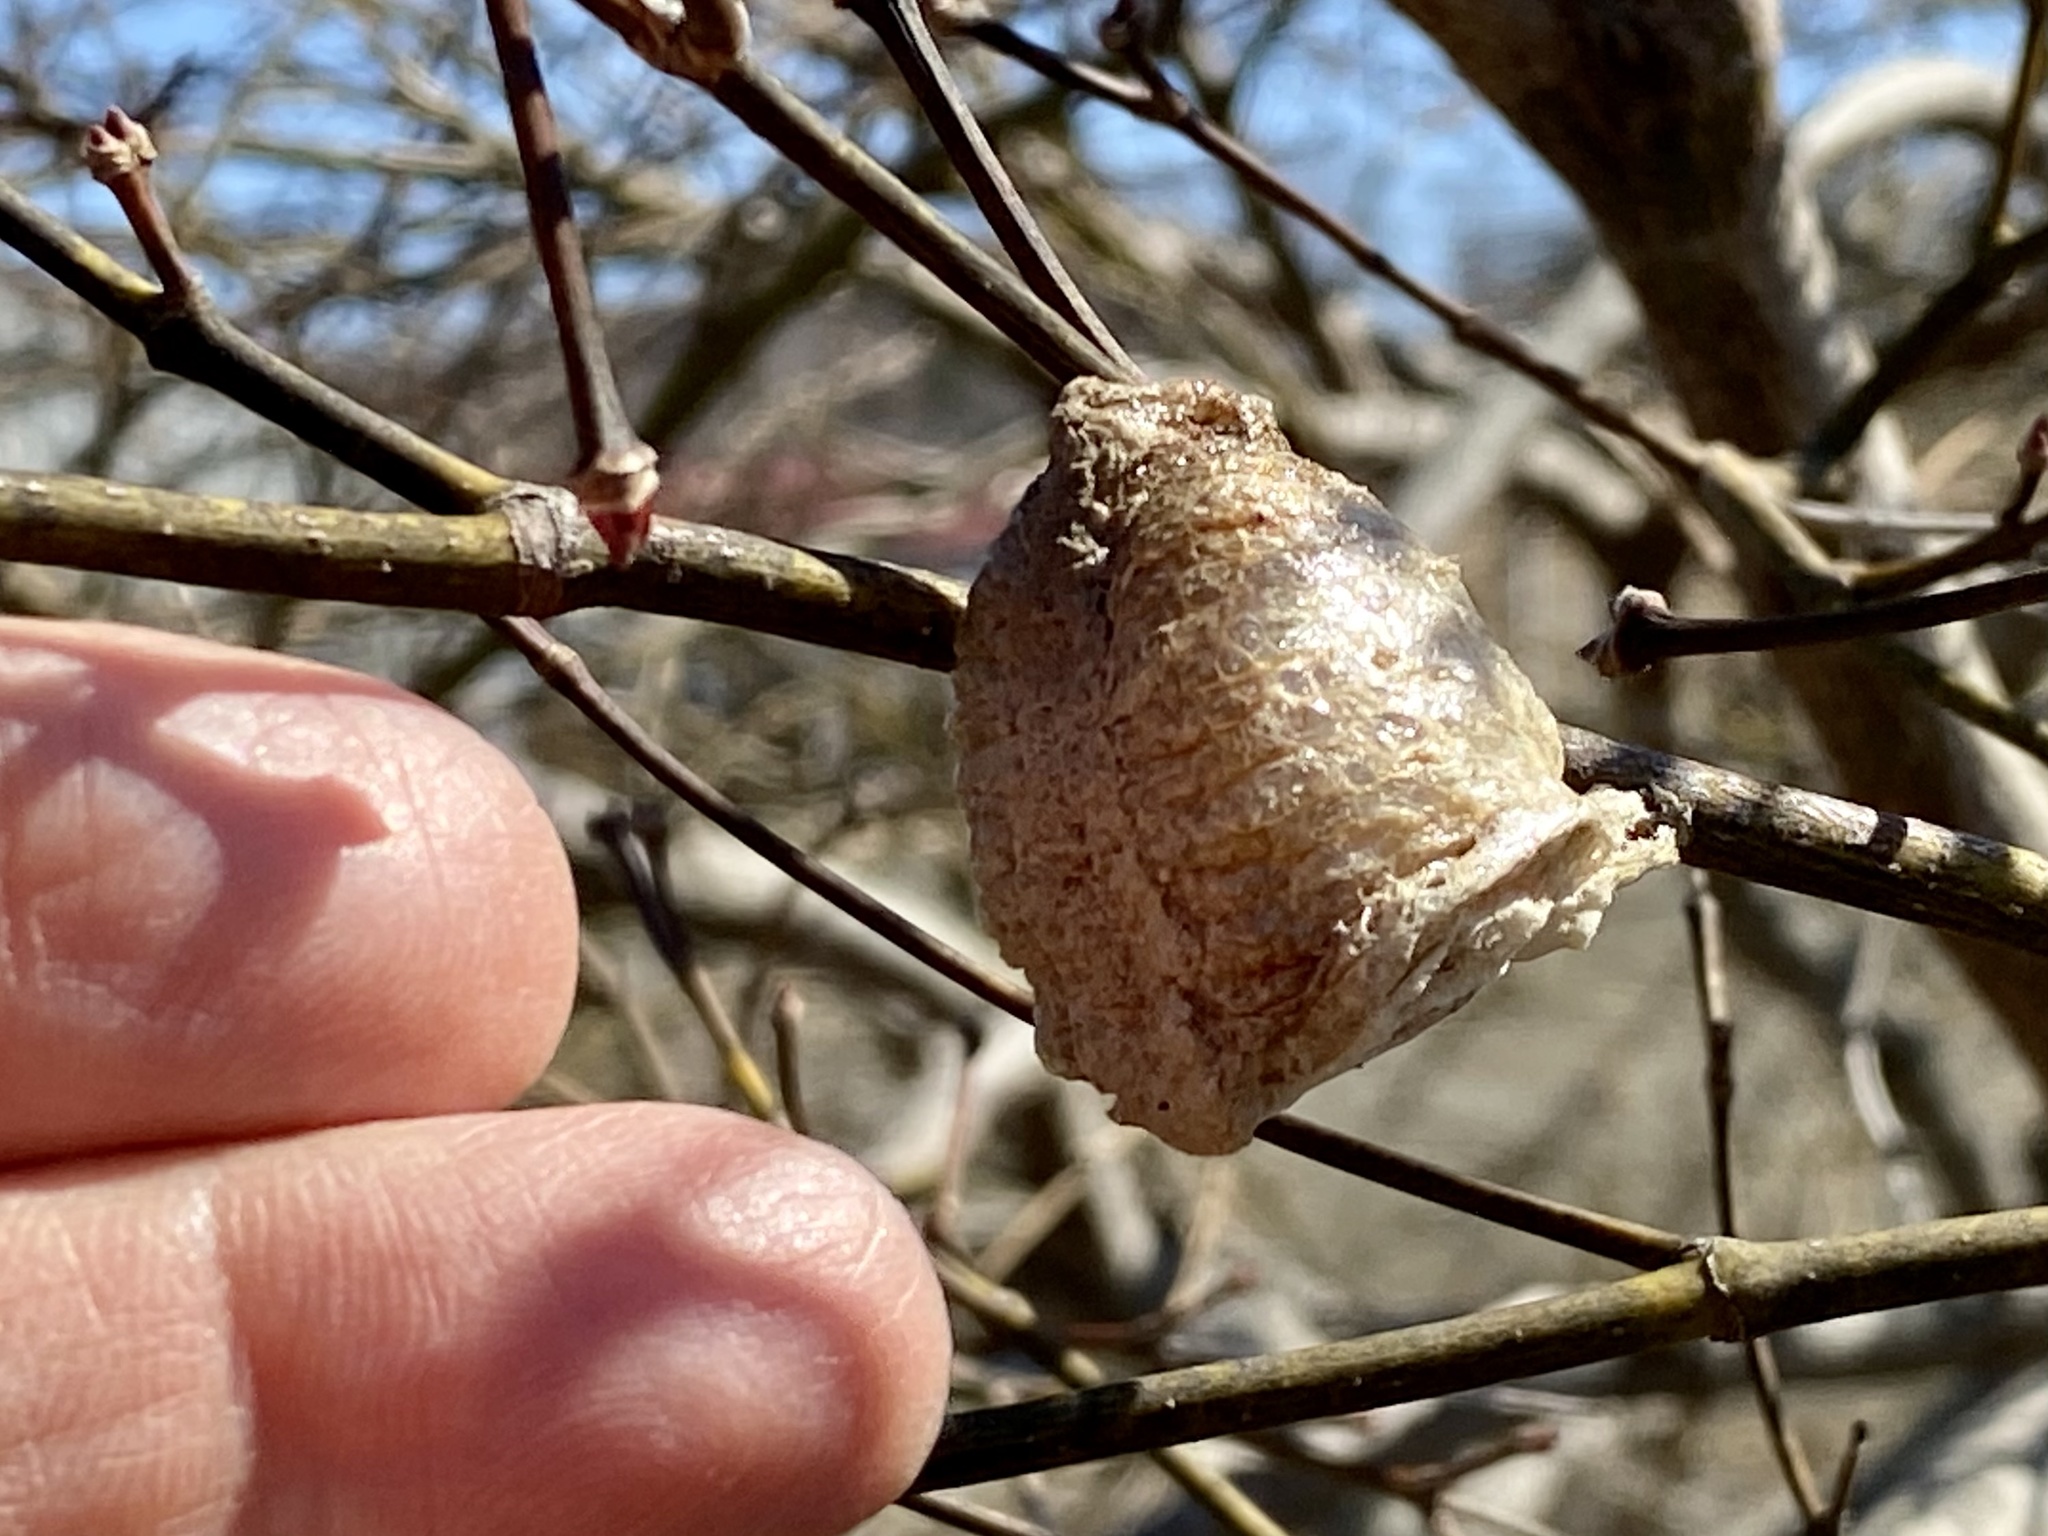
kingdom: Animalia
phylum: Arthropoda
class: Insecta
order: Mantodea
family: Mantidae
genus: Tenodera
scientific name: Tenodera sinensis
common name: Chinese mantis
